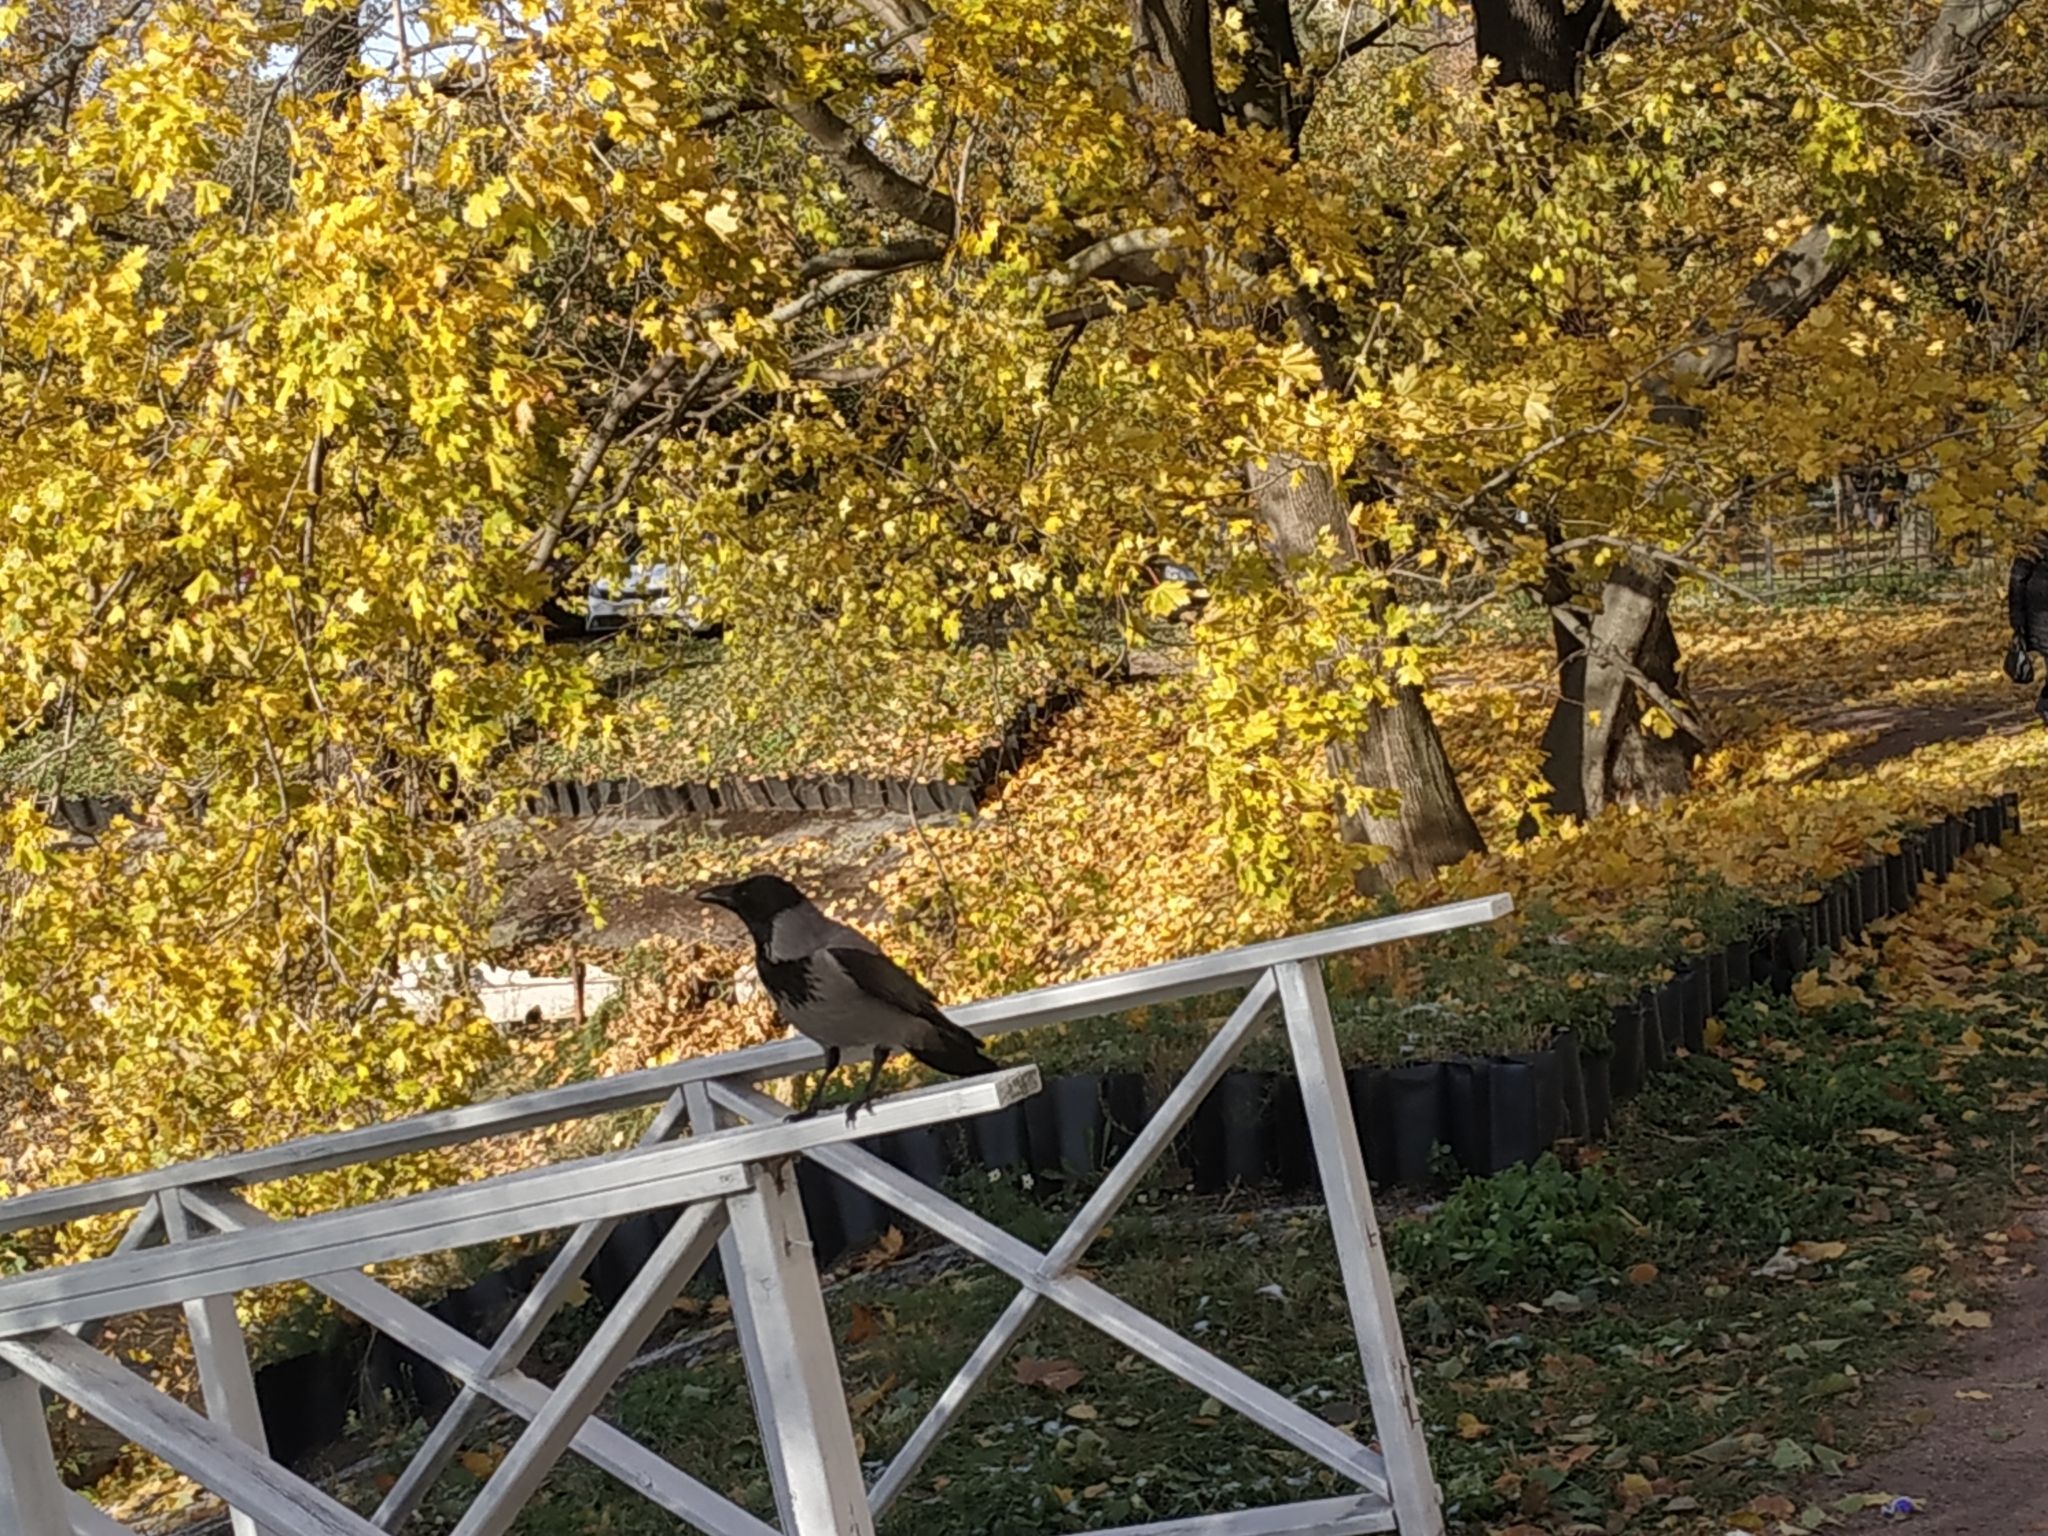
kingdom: Animalia
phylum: Chordata
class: Aves
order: Passeriformes
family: Corvidae
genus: Corvus
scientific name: Corvus cornix
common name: Hooded crow
